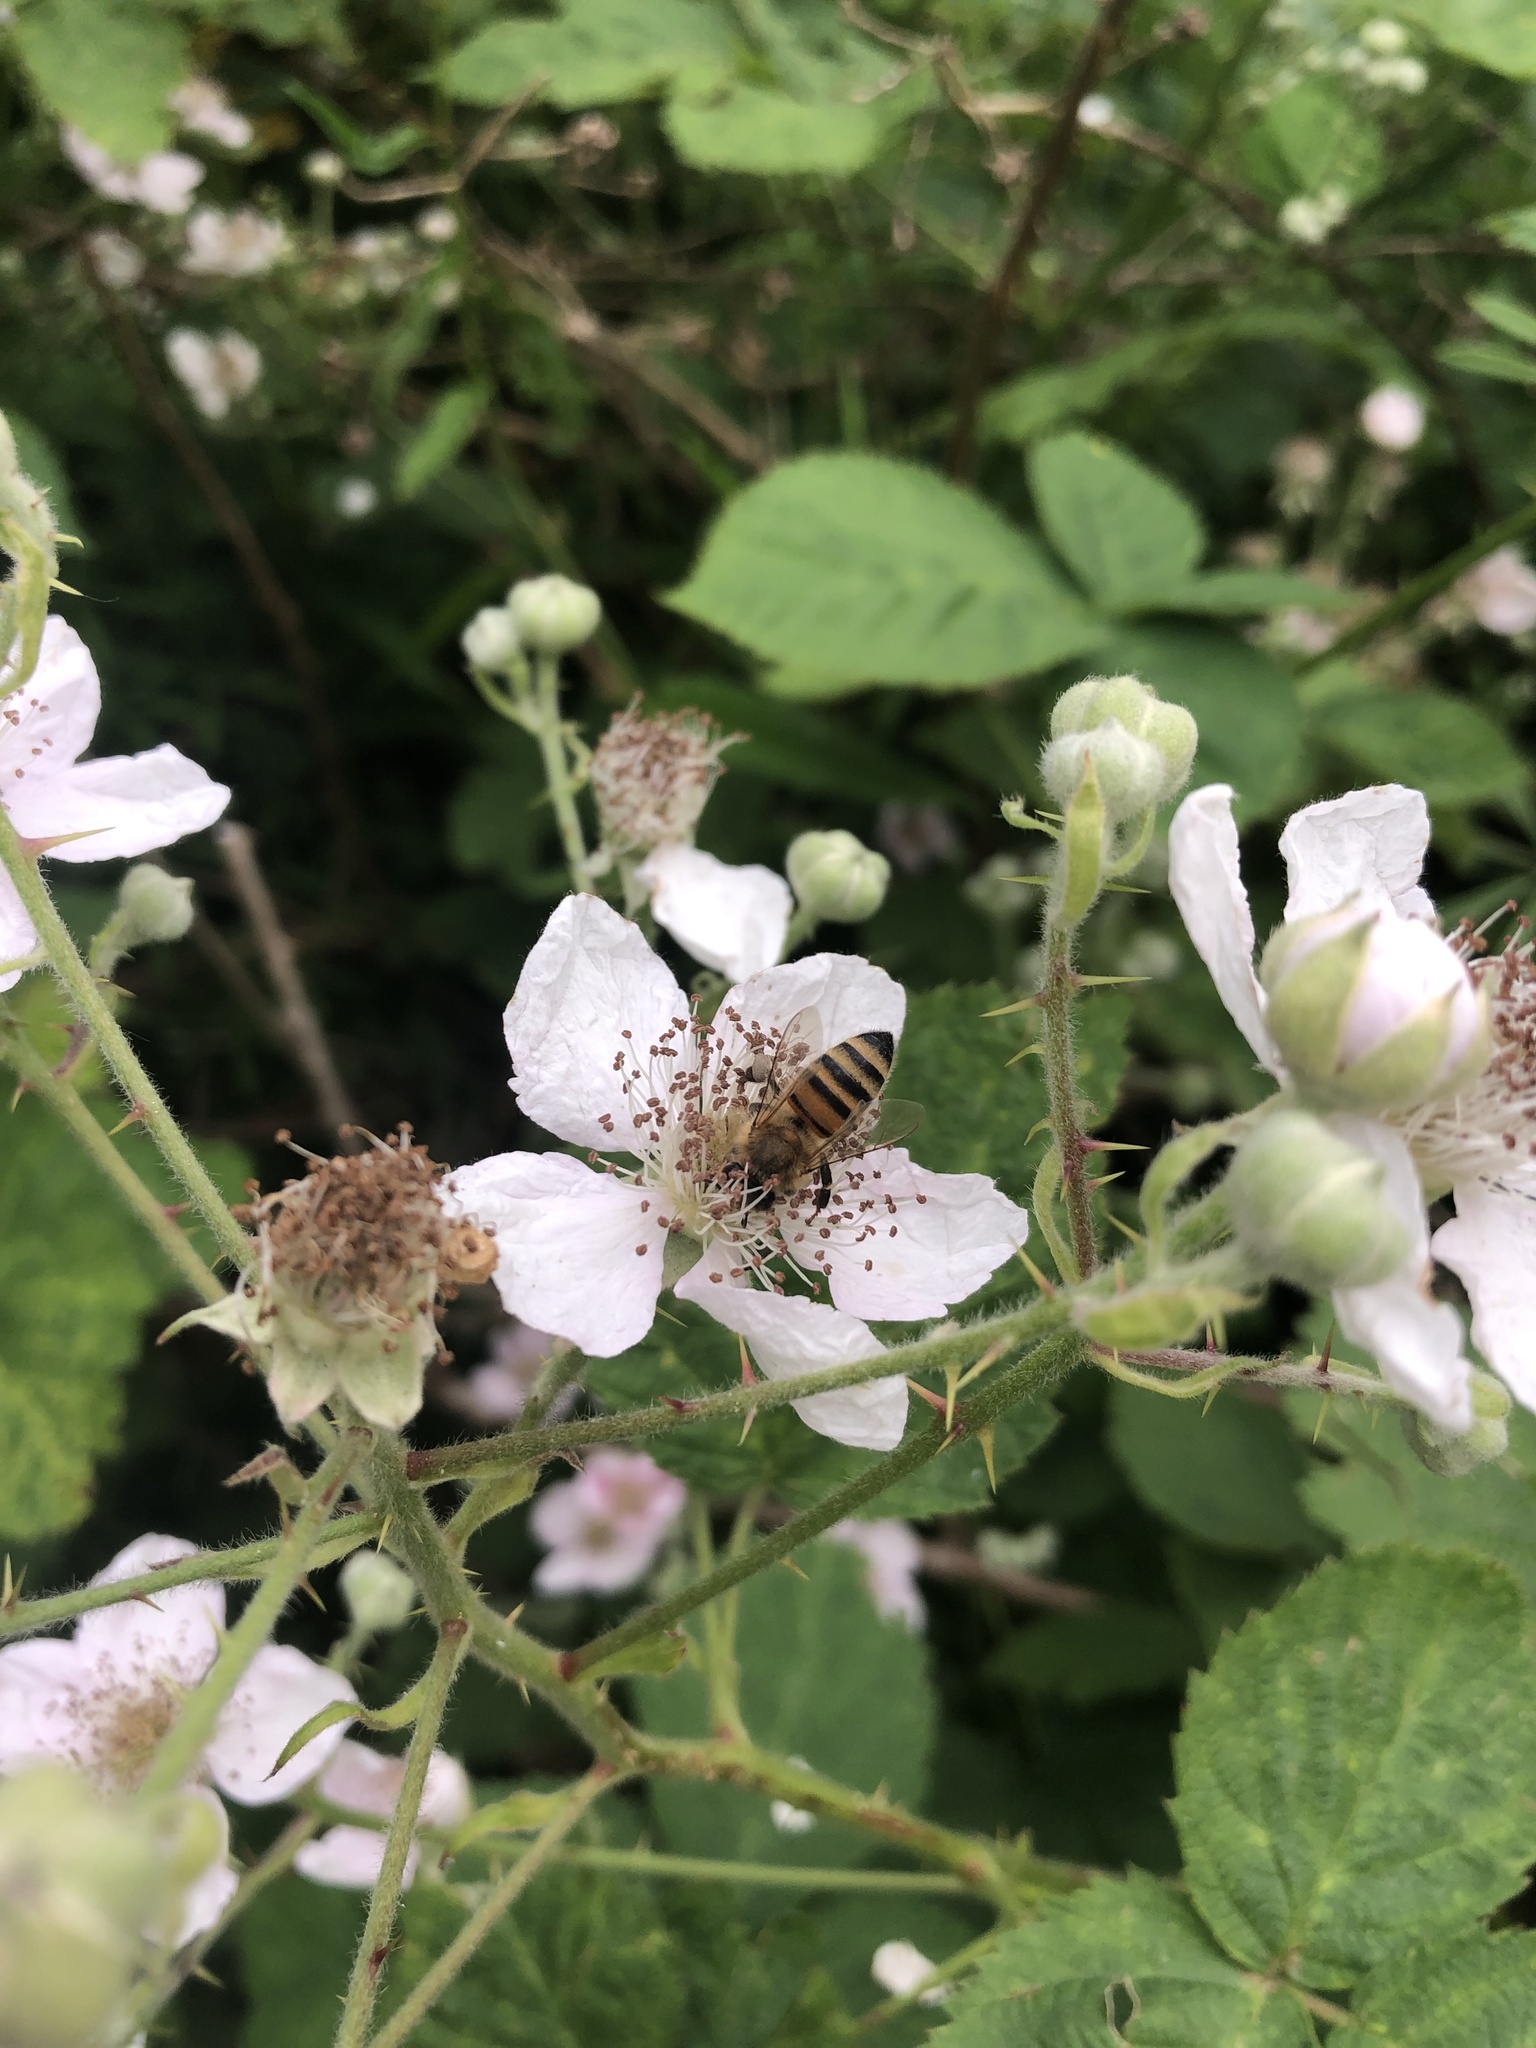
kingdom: Animalia
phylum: Arthropoda
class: Insecta
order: Hymenoptera
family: Apidae
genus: Apis
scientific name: Apis mellifera
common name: Honey bee
